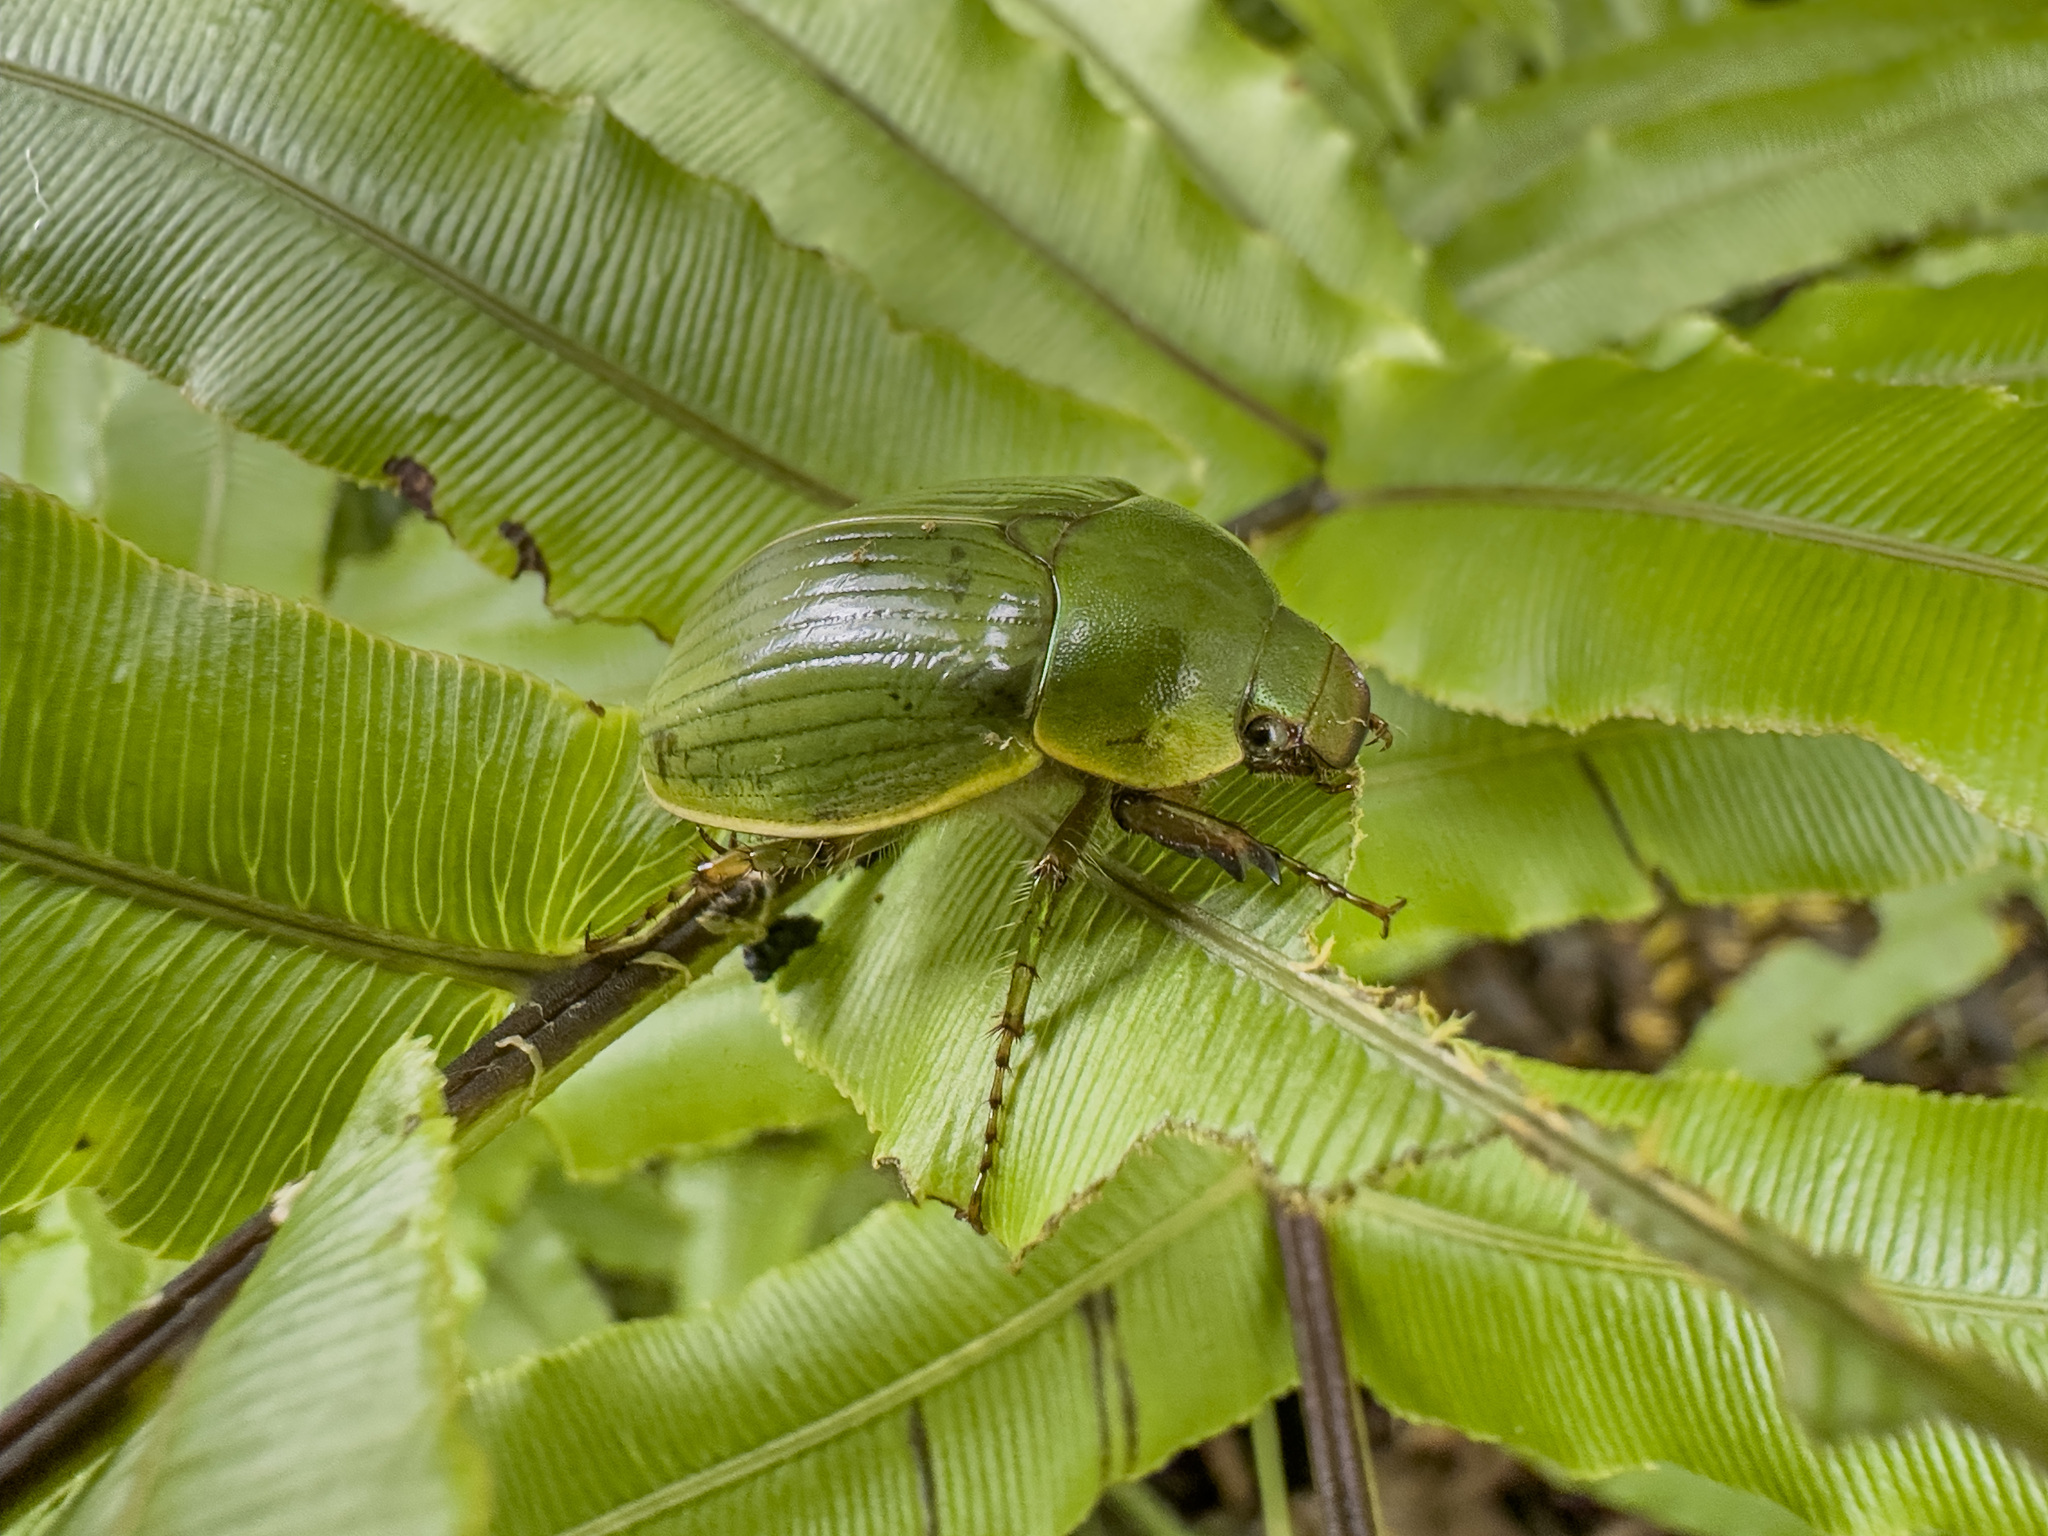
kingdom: Animalia
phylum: Arthropoda
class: Insecta
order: Coleoptera
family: Scarabaeidae
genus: Stethaspis
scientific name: Stethaspis longicornis
